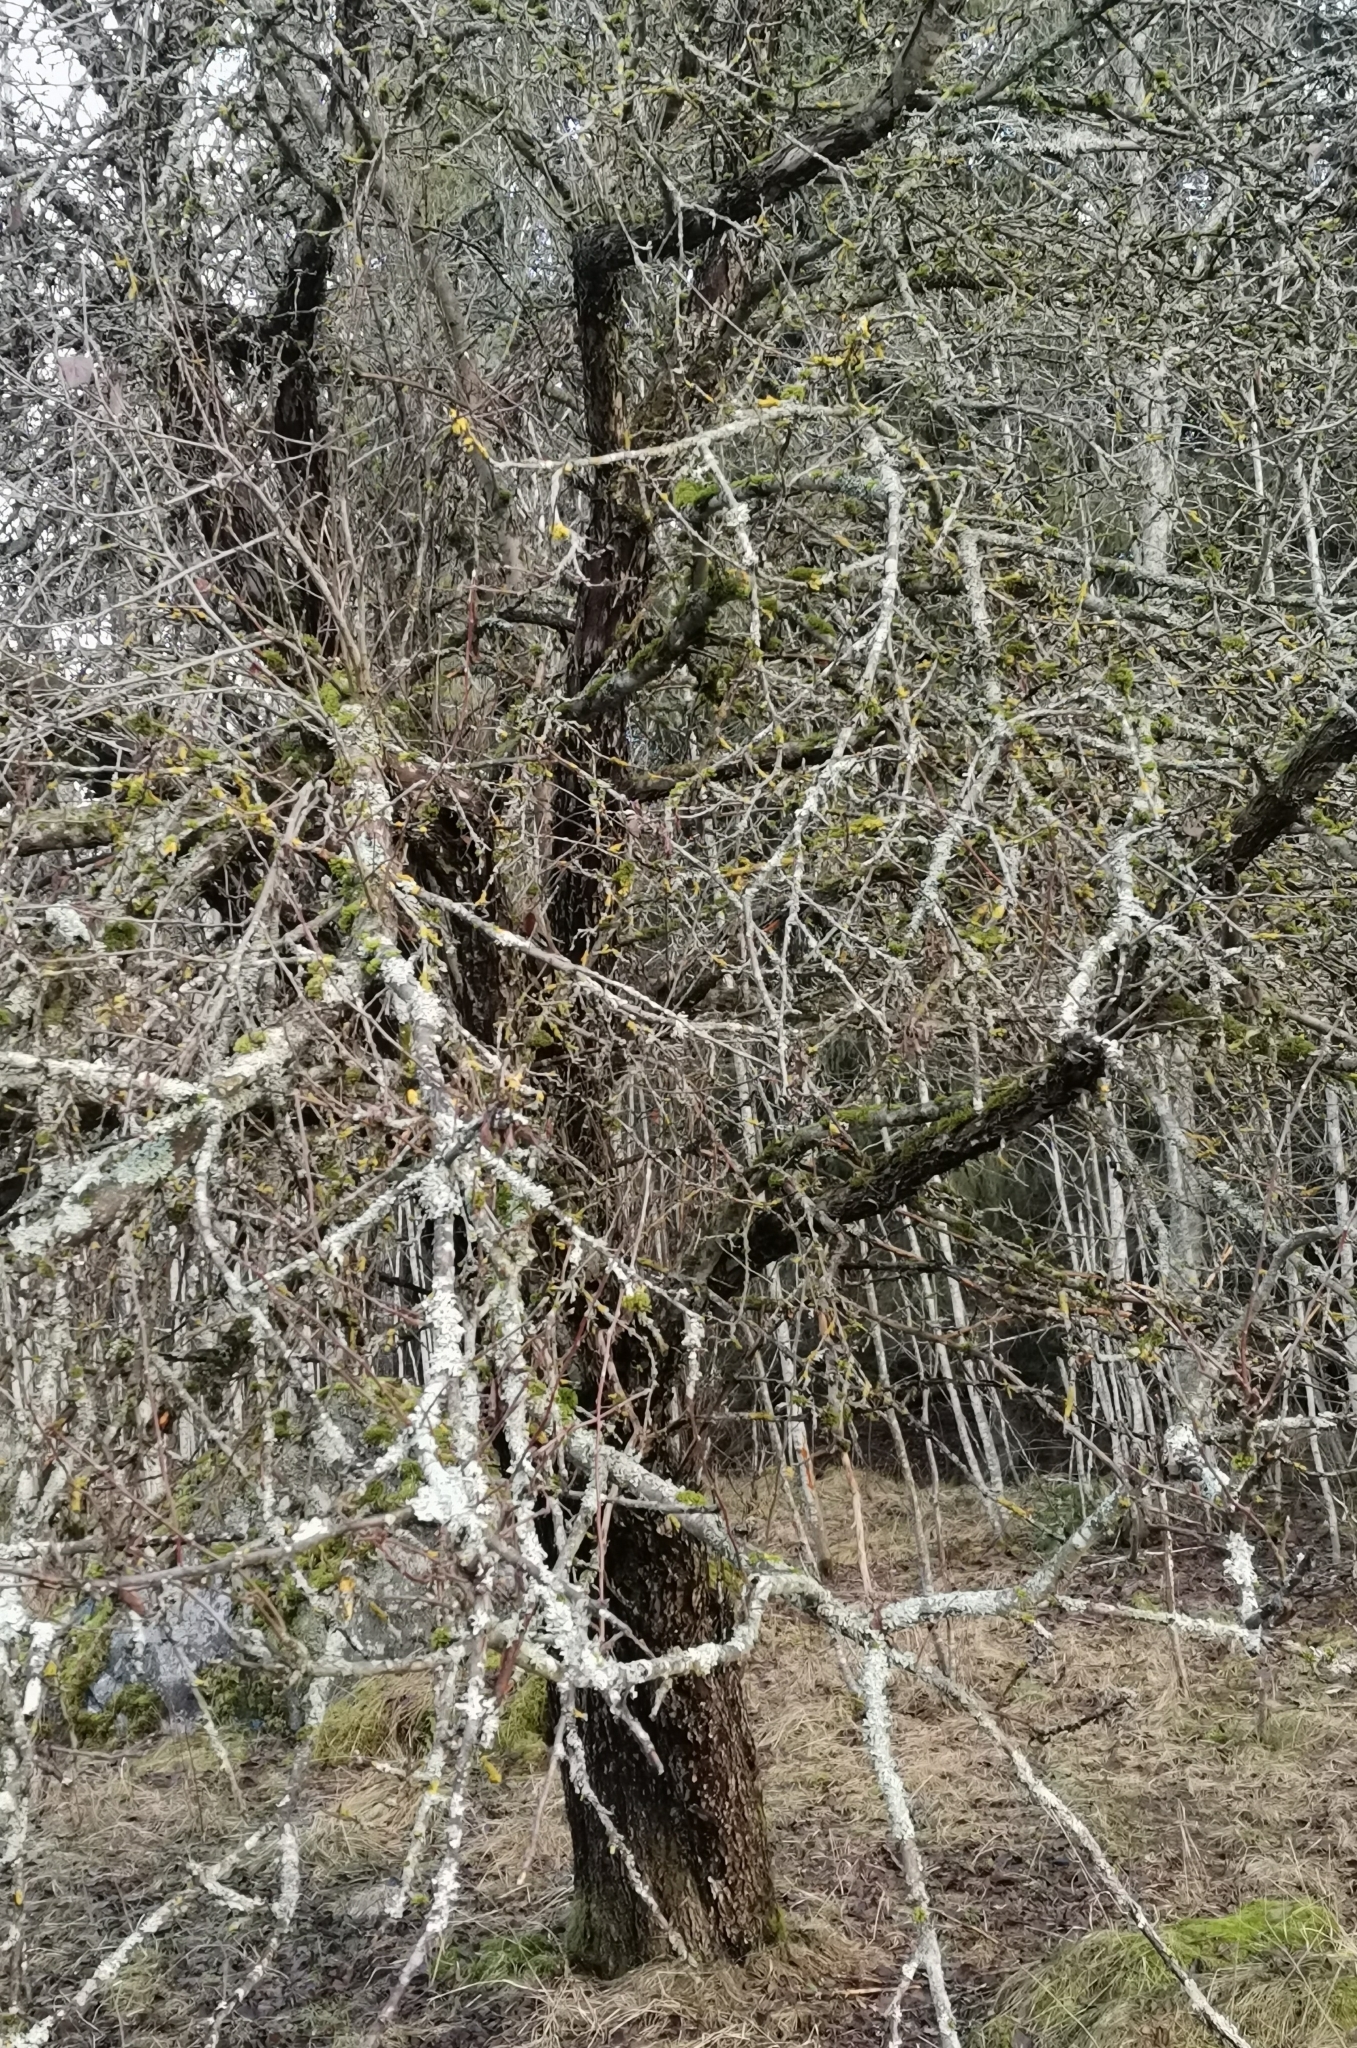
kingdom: Fungi
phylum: Ascomycota
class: Lecanoromycetes
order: Teloschistales
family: Teloschistaceae
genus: Xanthoria
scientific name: Xanthoria parietina
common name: Common orange lichen
